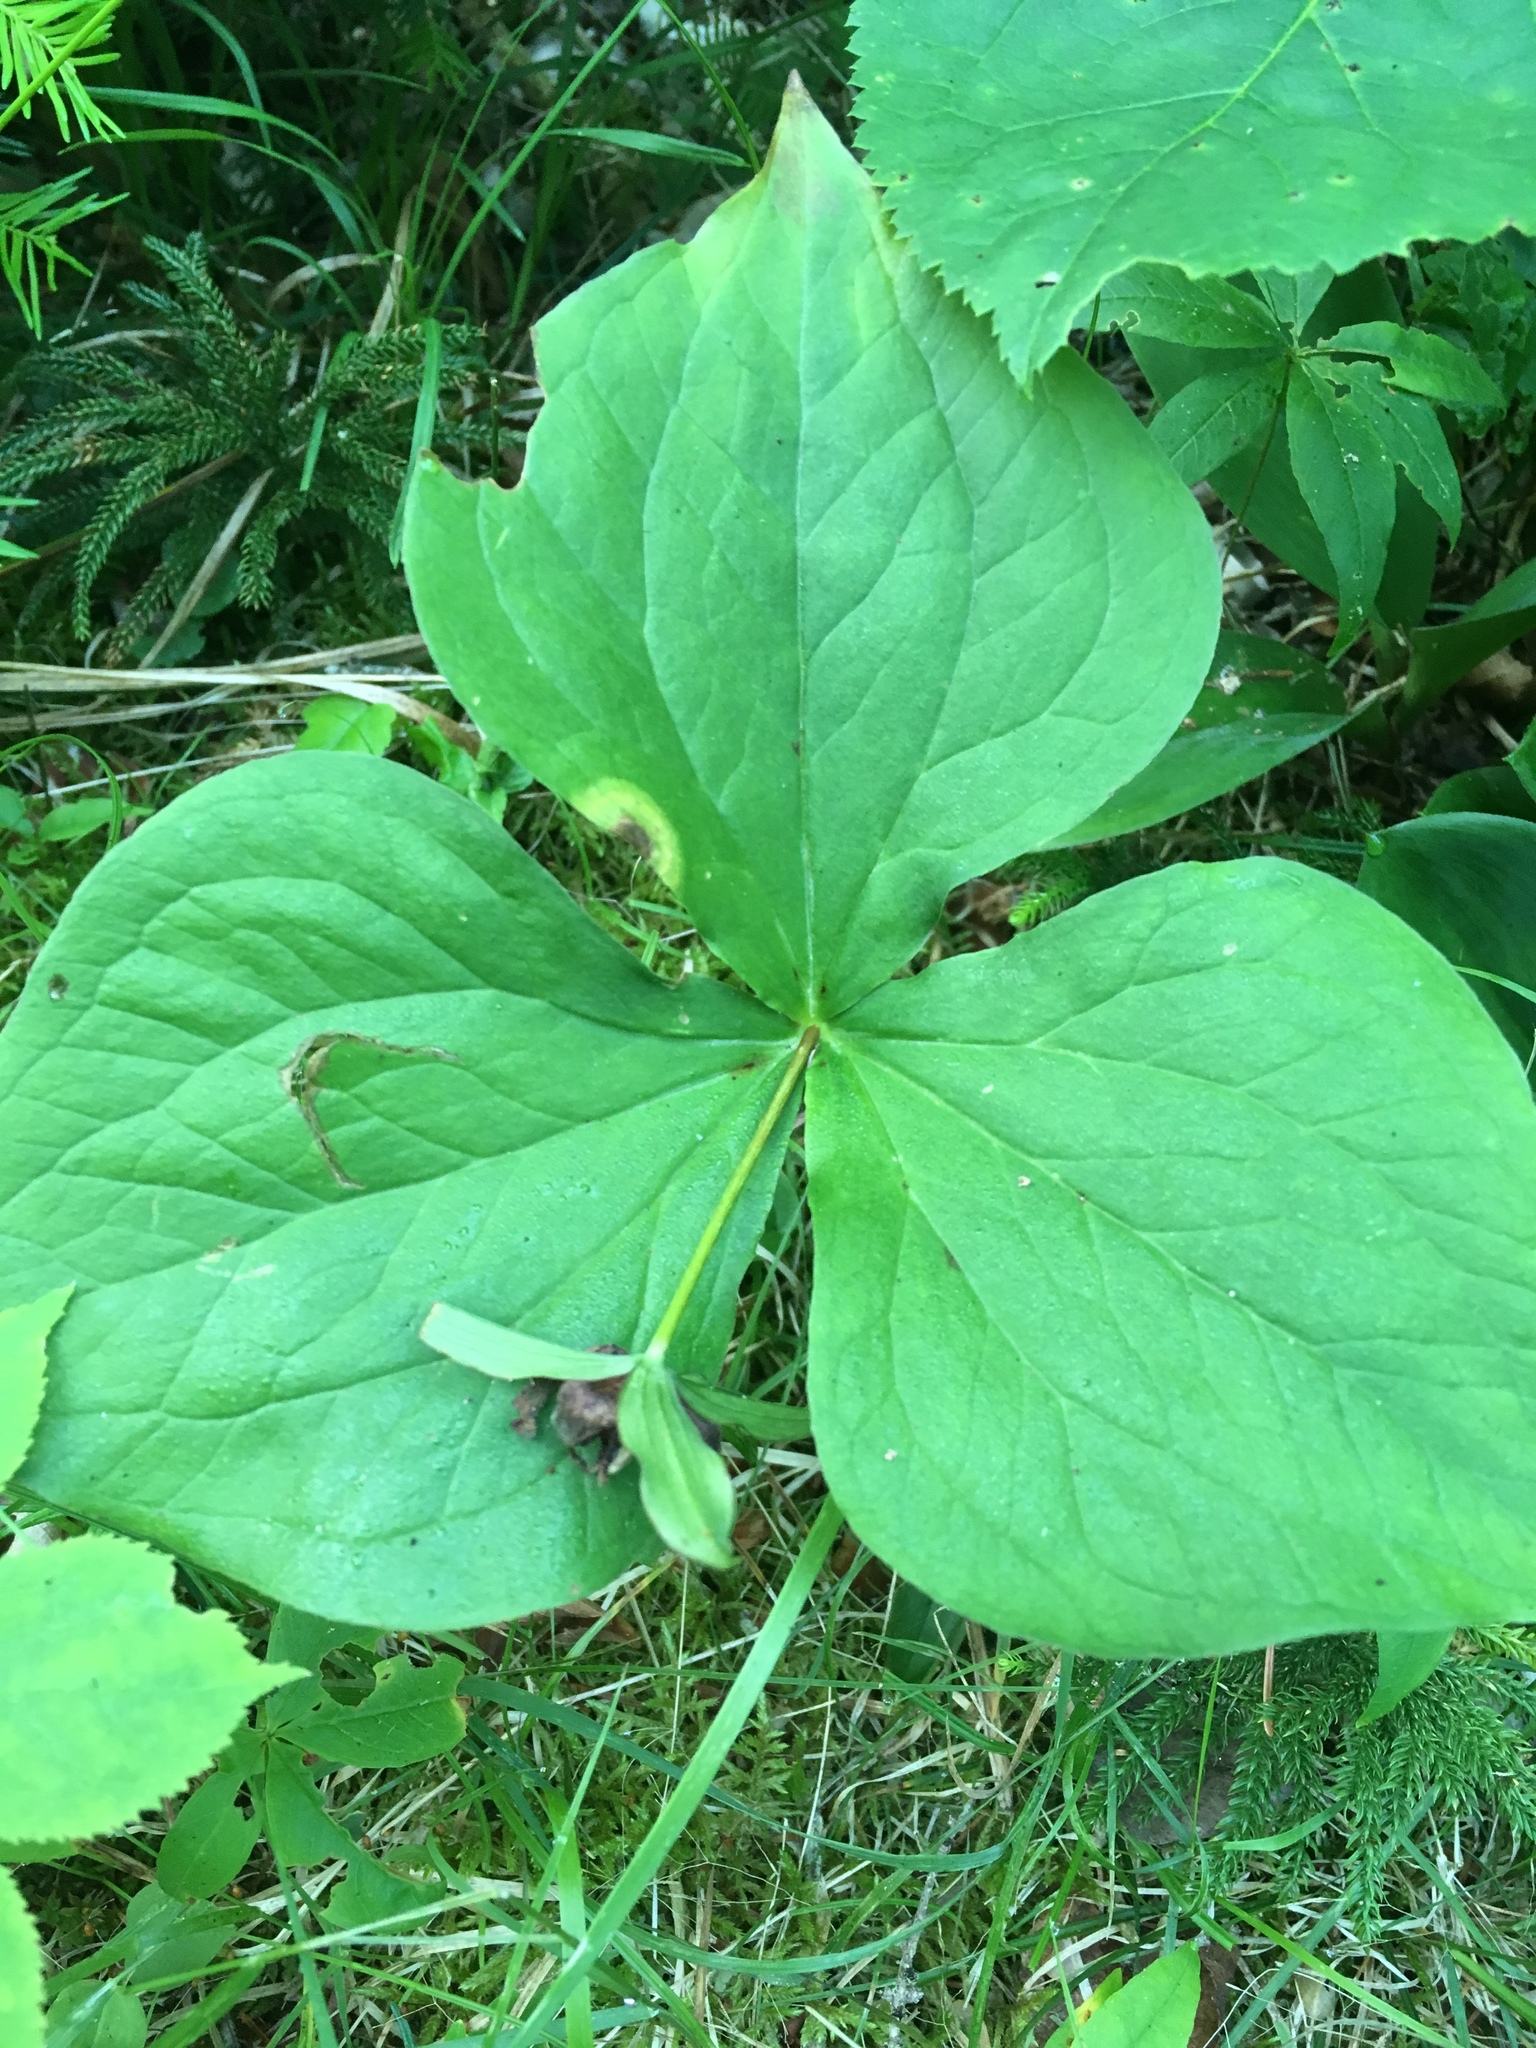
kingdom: Plantae
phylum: Tracheophyta
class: Liliopsida
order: Liliales
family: Melanthiaceae
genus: Trillium
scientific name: Trillium erectum
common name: Purple trillium
